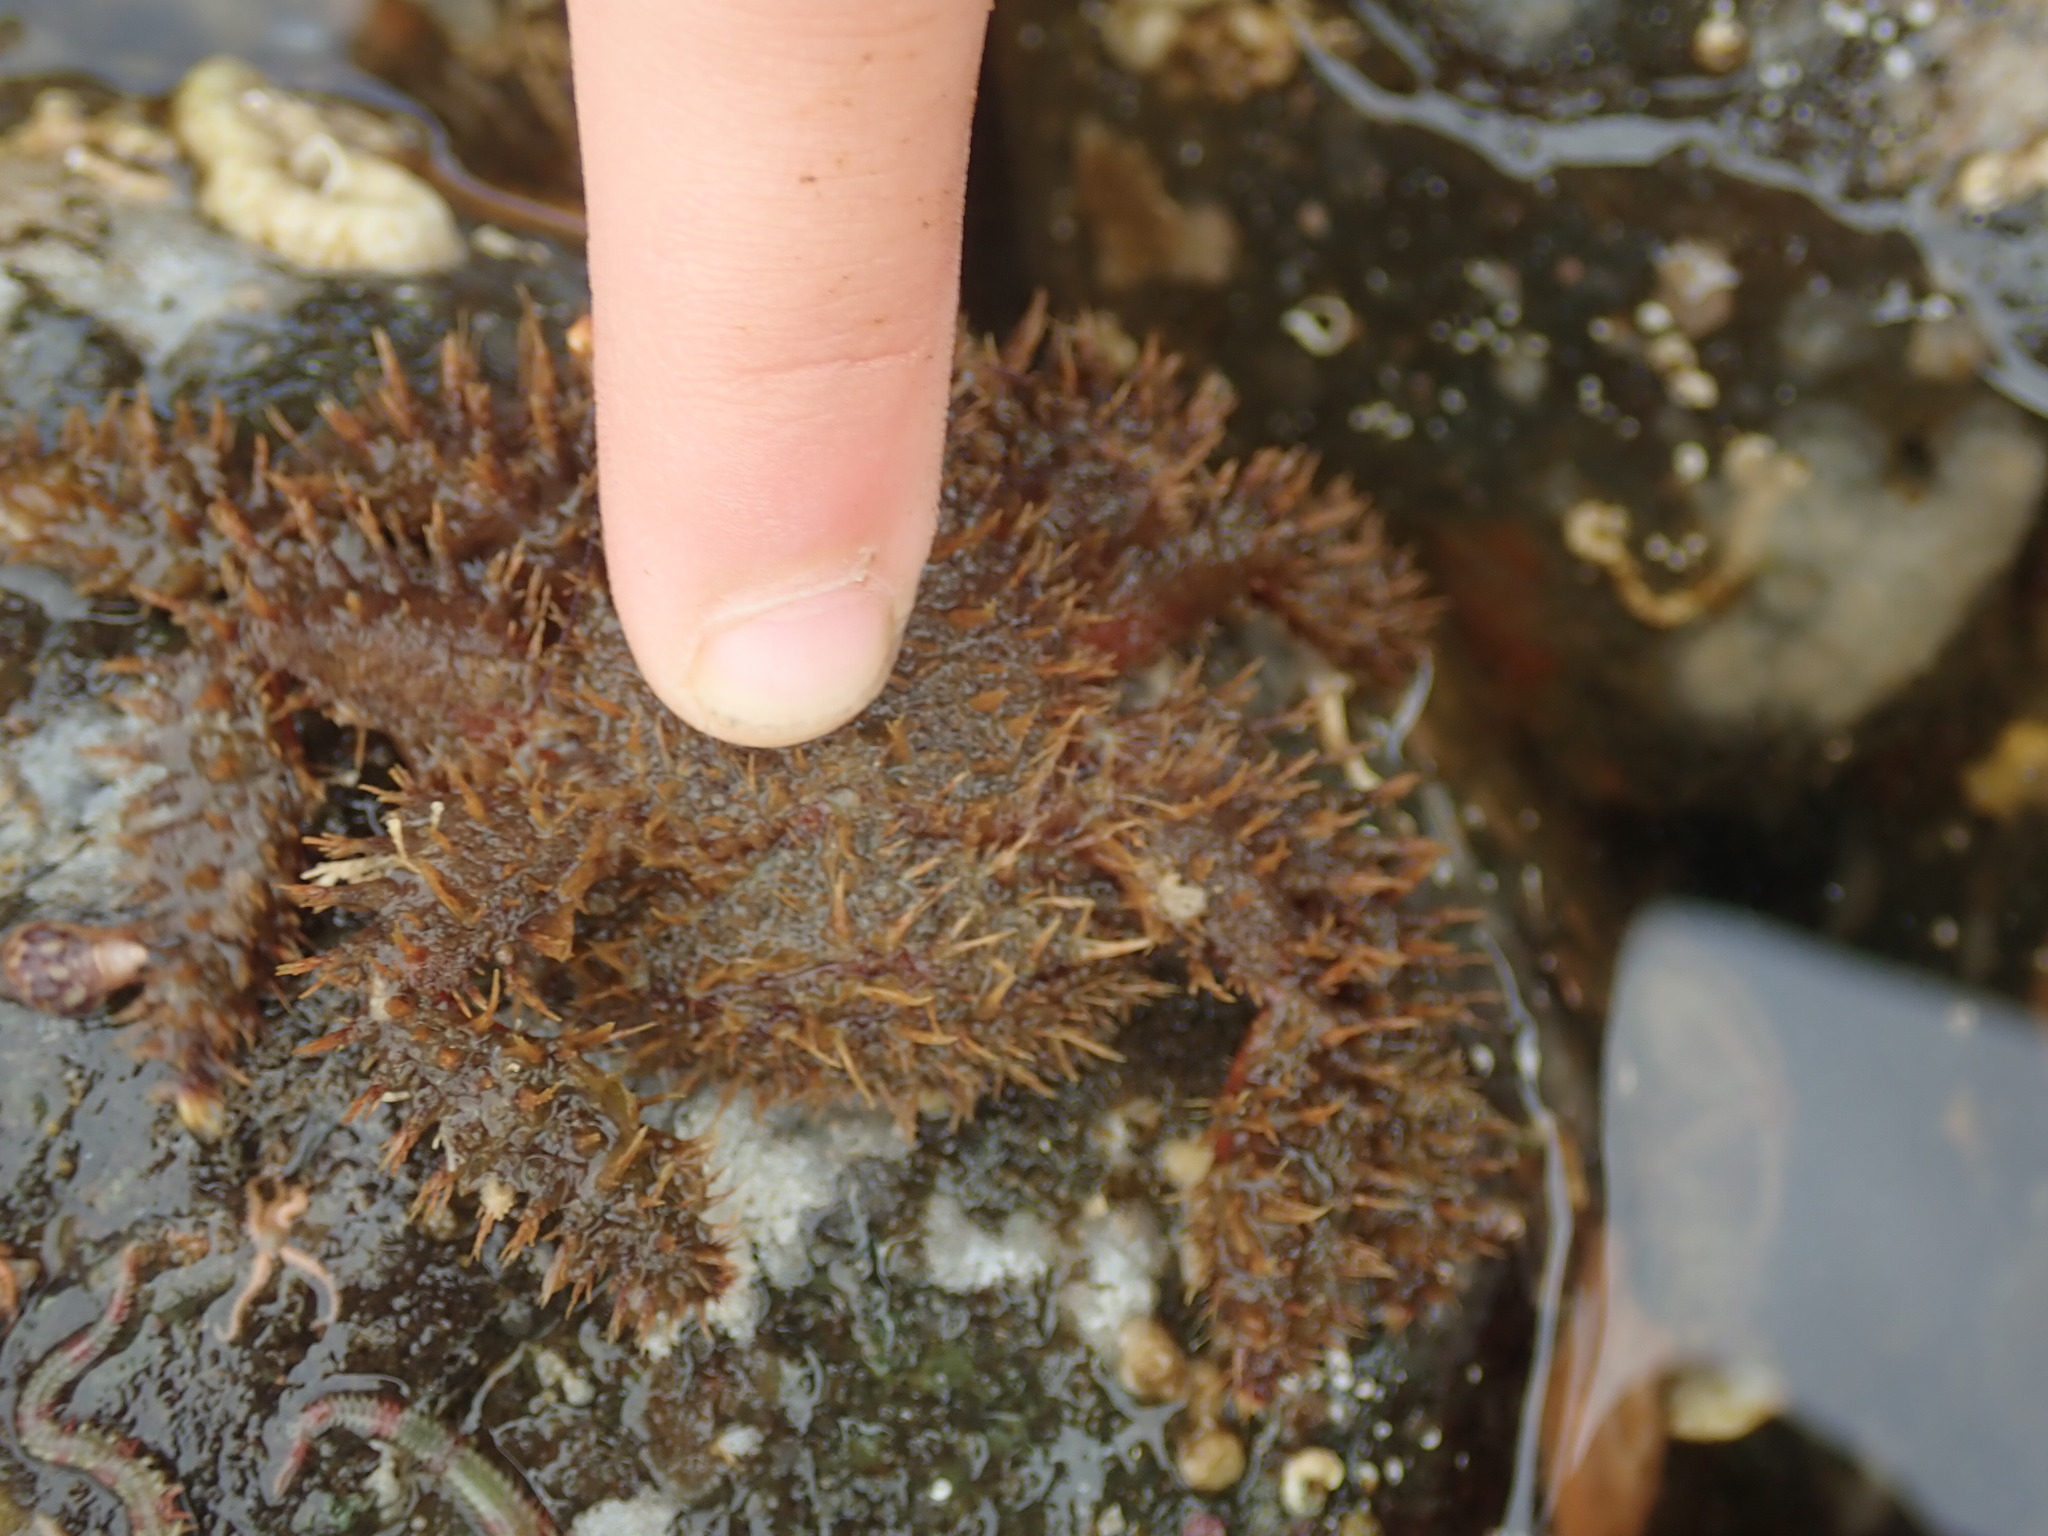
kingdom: Animalia
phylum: Arthropoda
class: Malacostraca
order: Decapoda
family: Hapalogastridae
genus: Hapalogaster
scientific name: Hapalogaster mertensii
